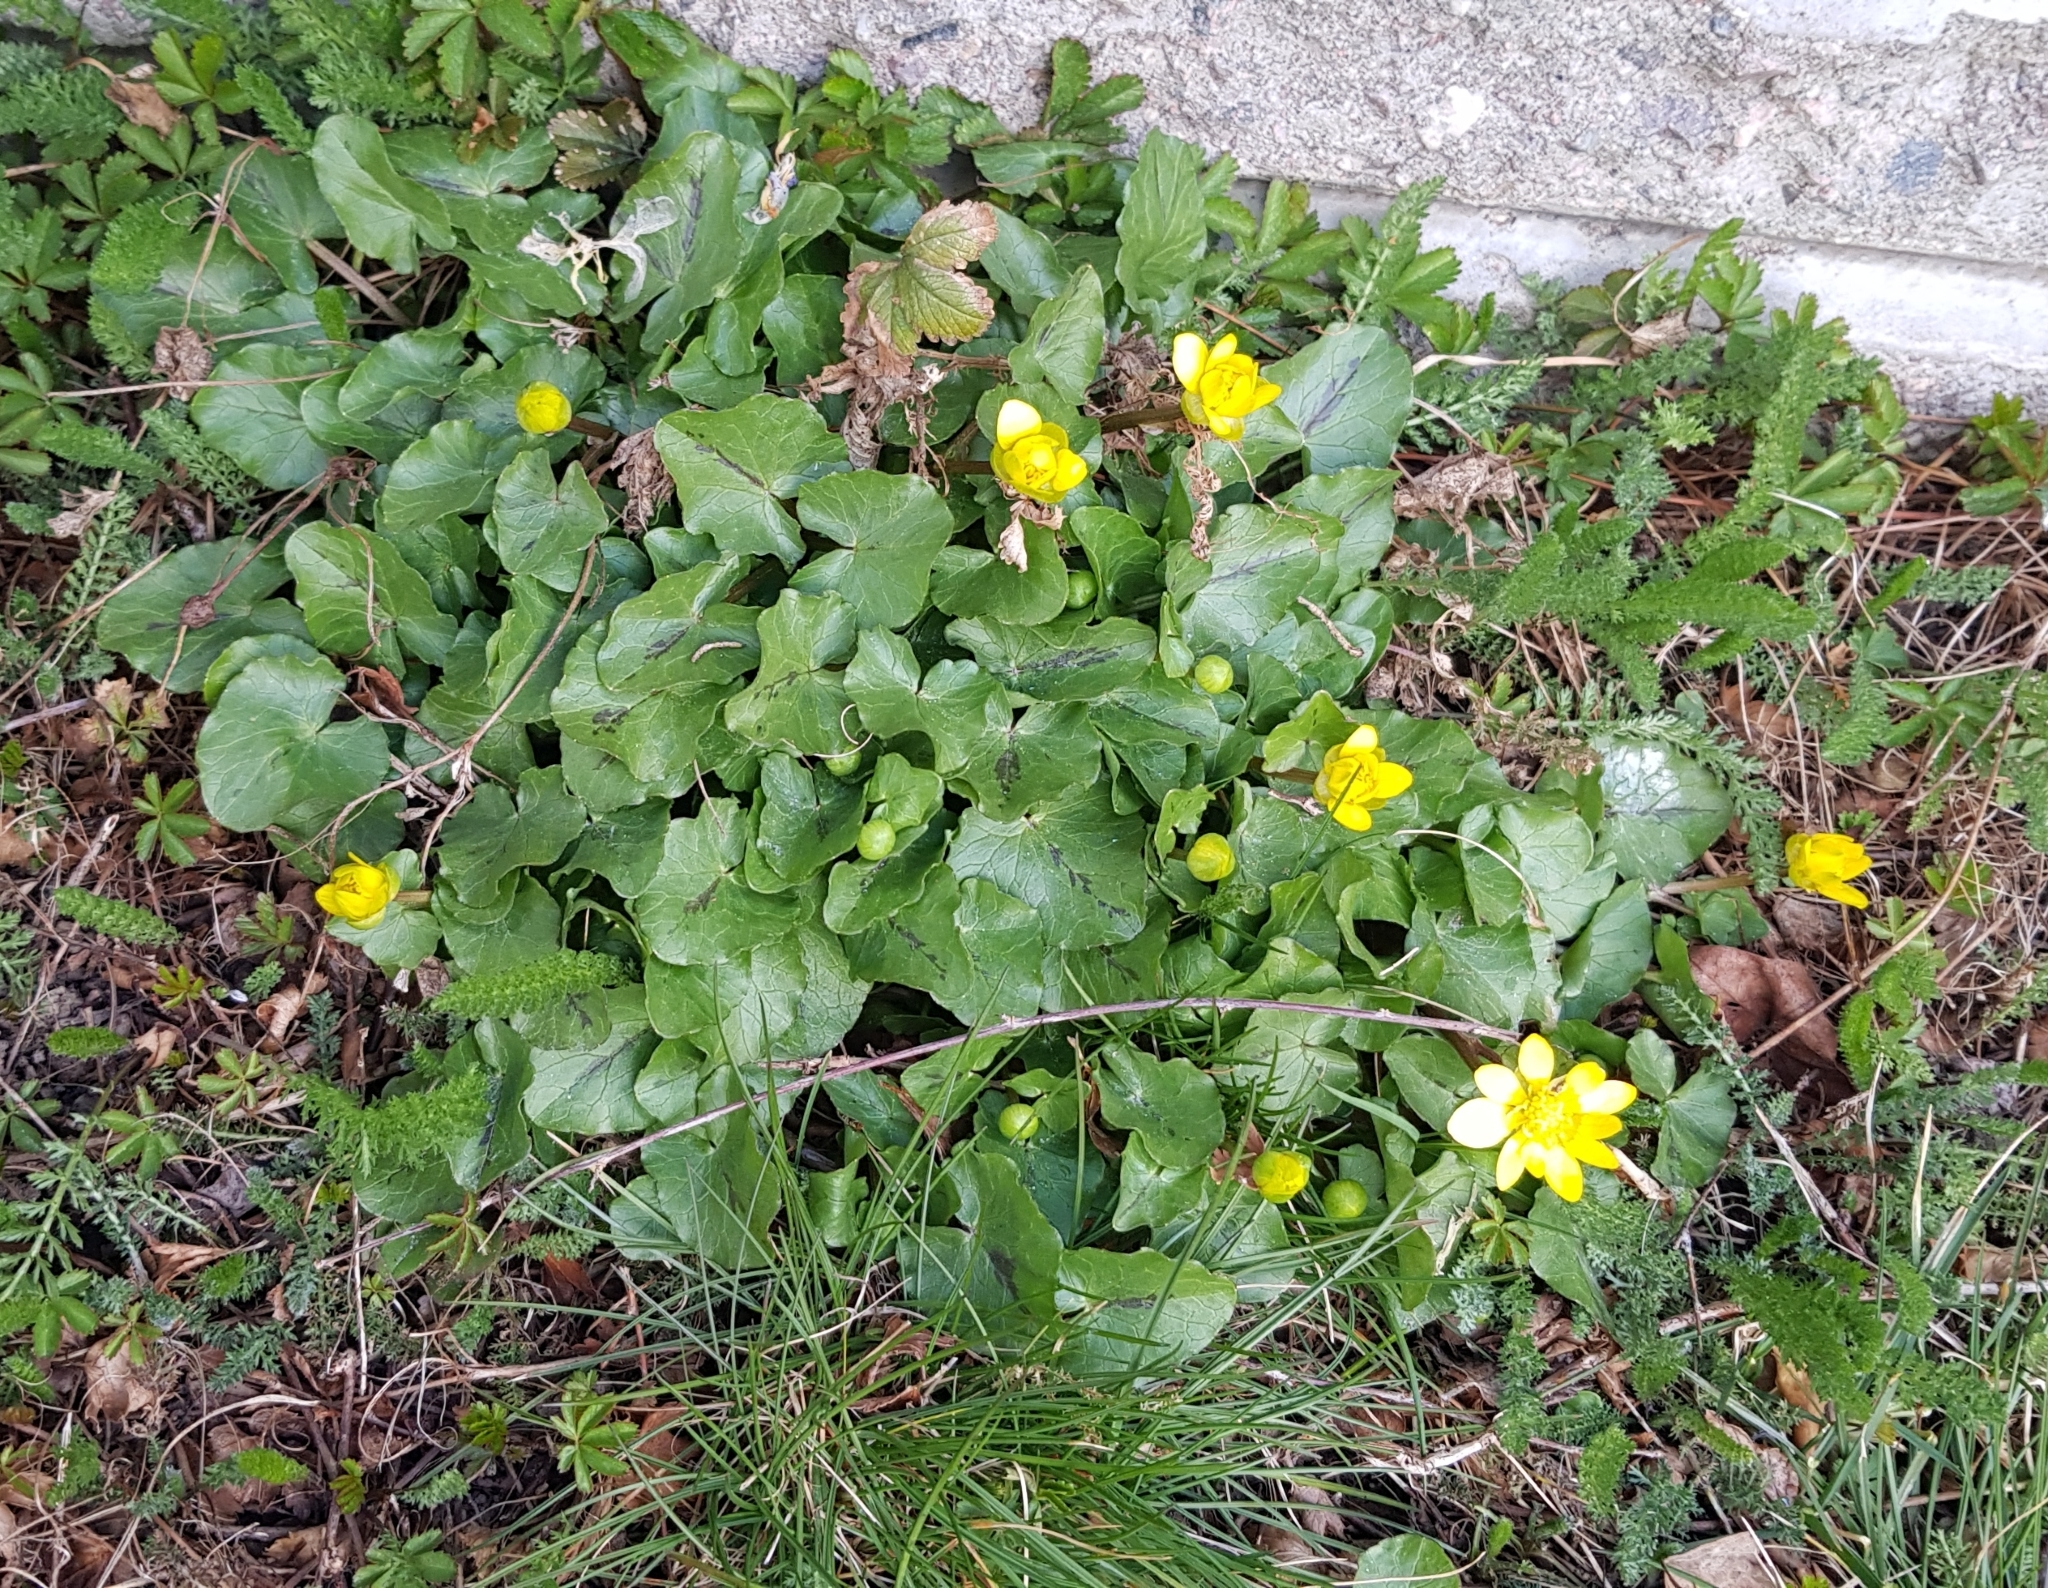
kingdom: Plantae
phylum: Tracheophyta
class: Magnoliopsida
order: Ranunculales
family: Ranunculaceae
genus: Ficaria
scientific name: Ficaria verna
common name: Lesser celandine
